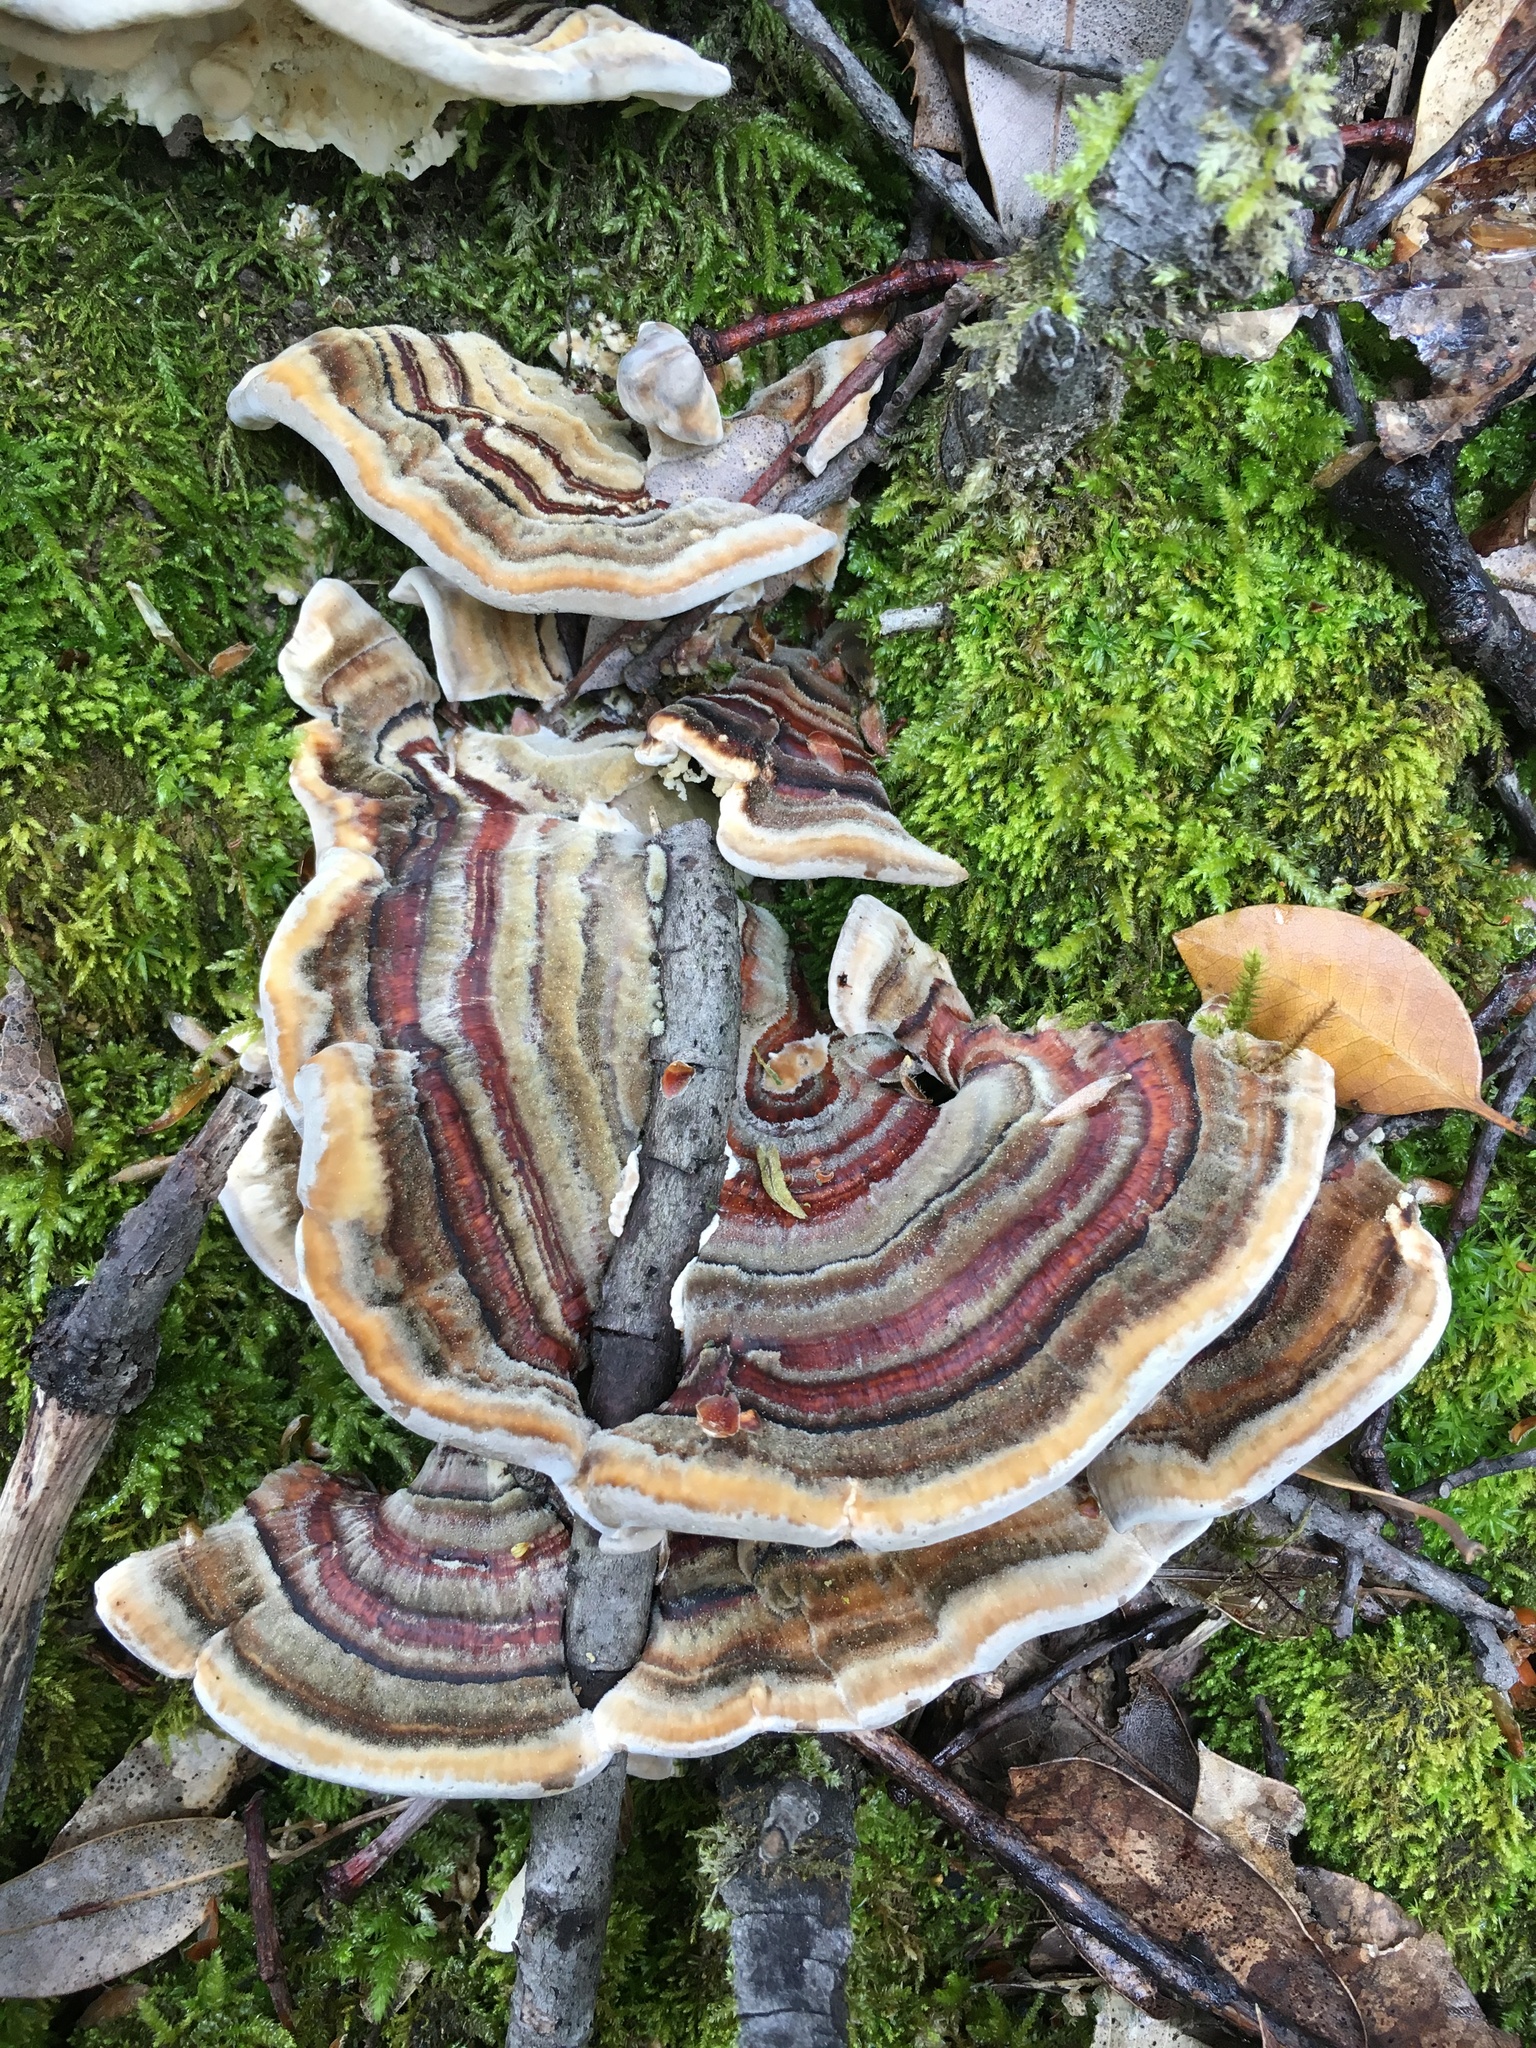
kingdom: Fungi
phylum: Basidiomycota
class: Agaricomycetes
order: Polyporales
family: Polyporaceae
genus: Trametes
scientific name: Trametes versicolor
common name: Turkeytail
